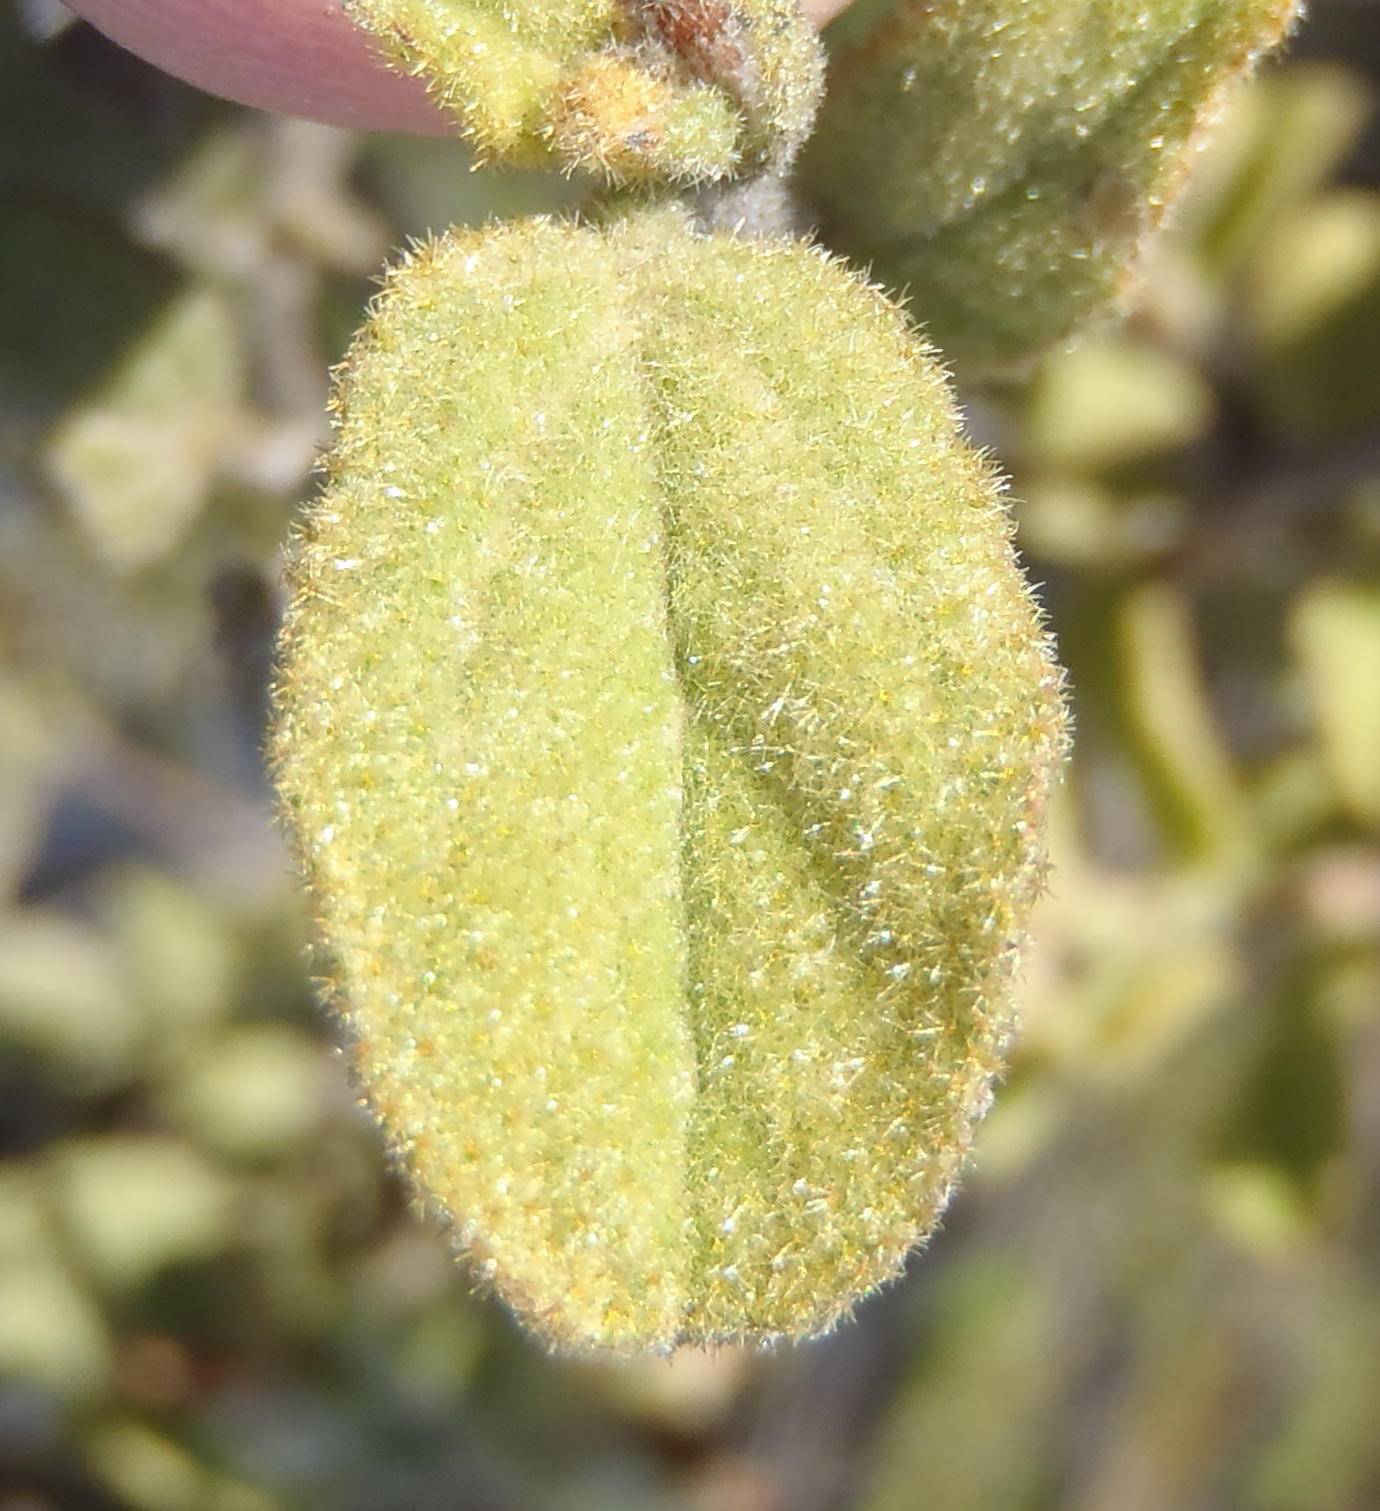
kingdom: Plantae
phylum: Tracheophyta
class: Magnoliopsida
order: Malvales
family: Malvaceae
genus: Hermannia
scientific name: Hermannia salviifolia
